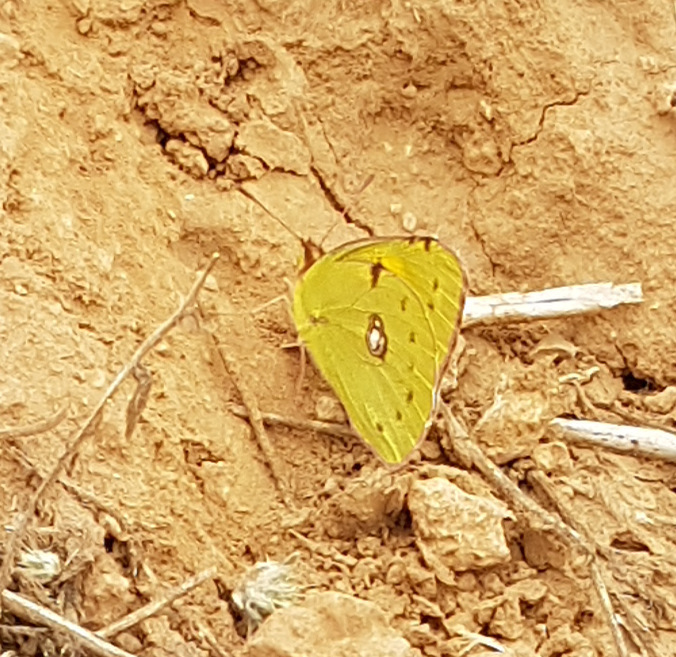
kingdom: Animalia
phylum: Arthropoda
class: Insecta
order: Lepidoptera
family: Pieridae
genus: Colias
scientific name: Colias croceus
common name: Clouded yellow
